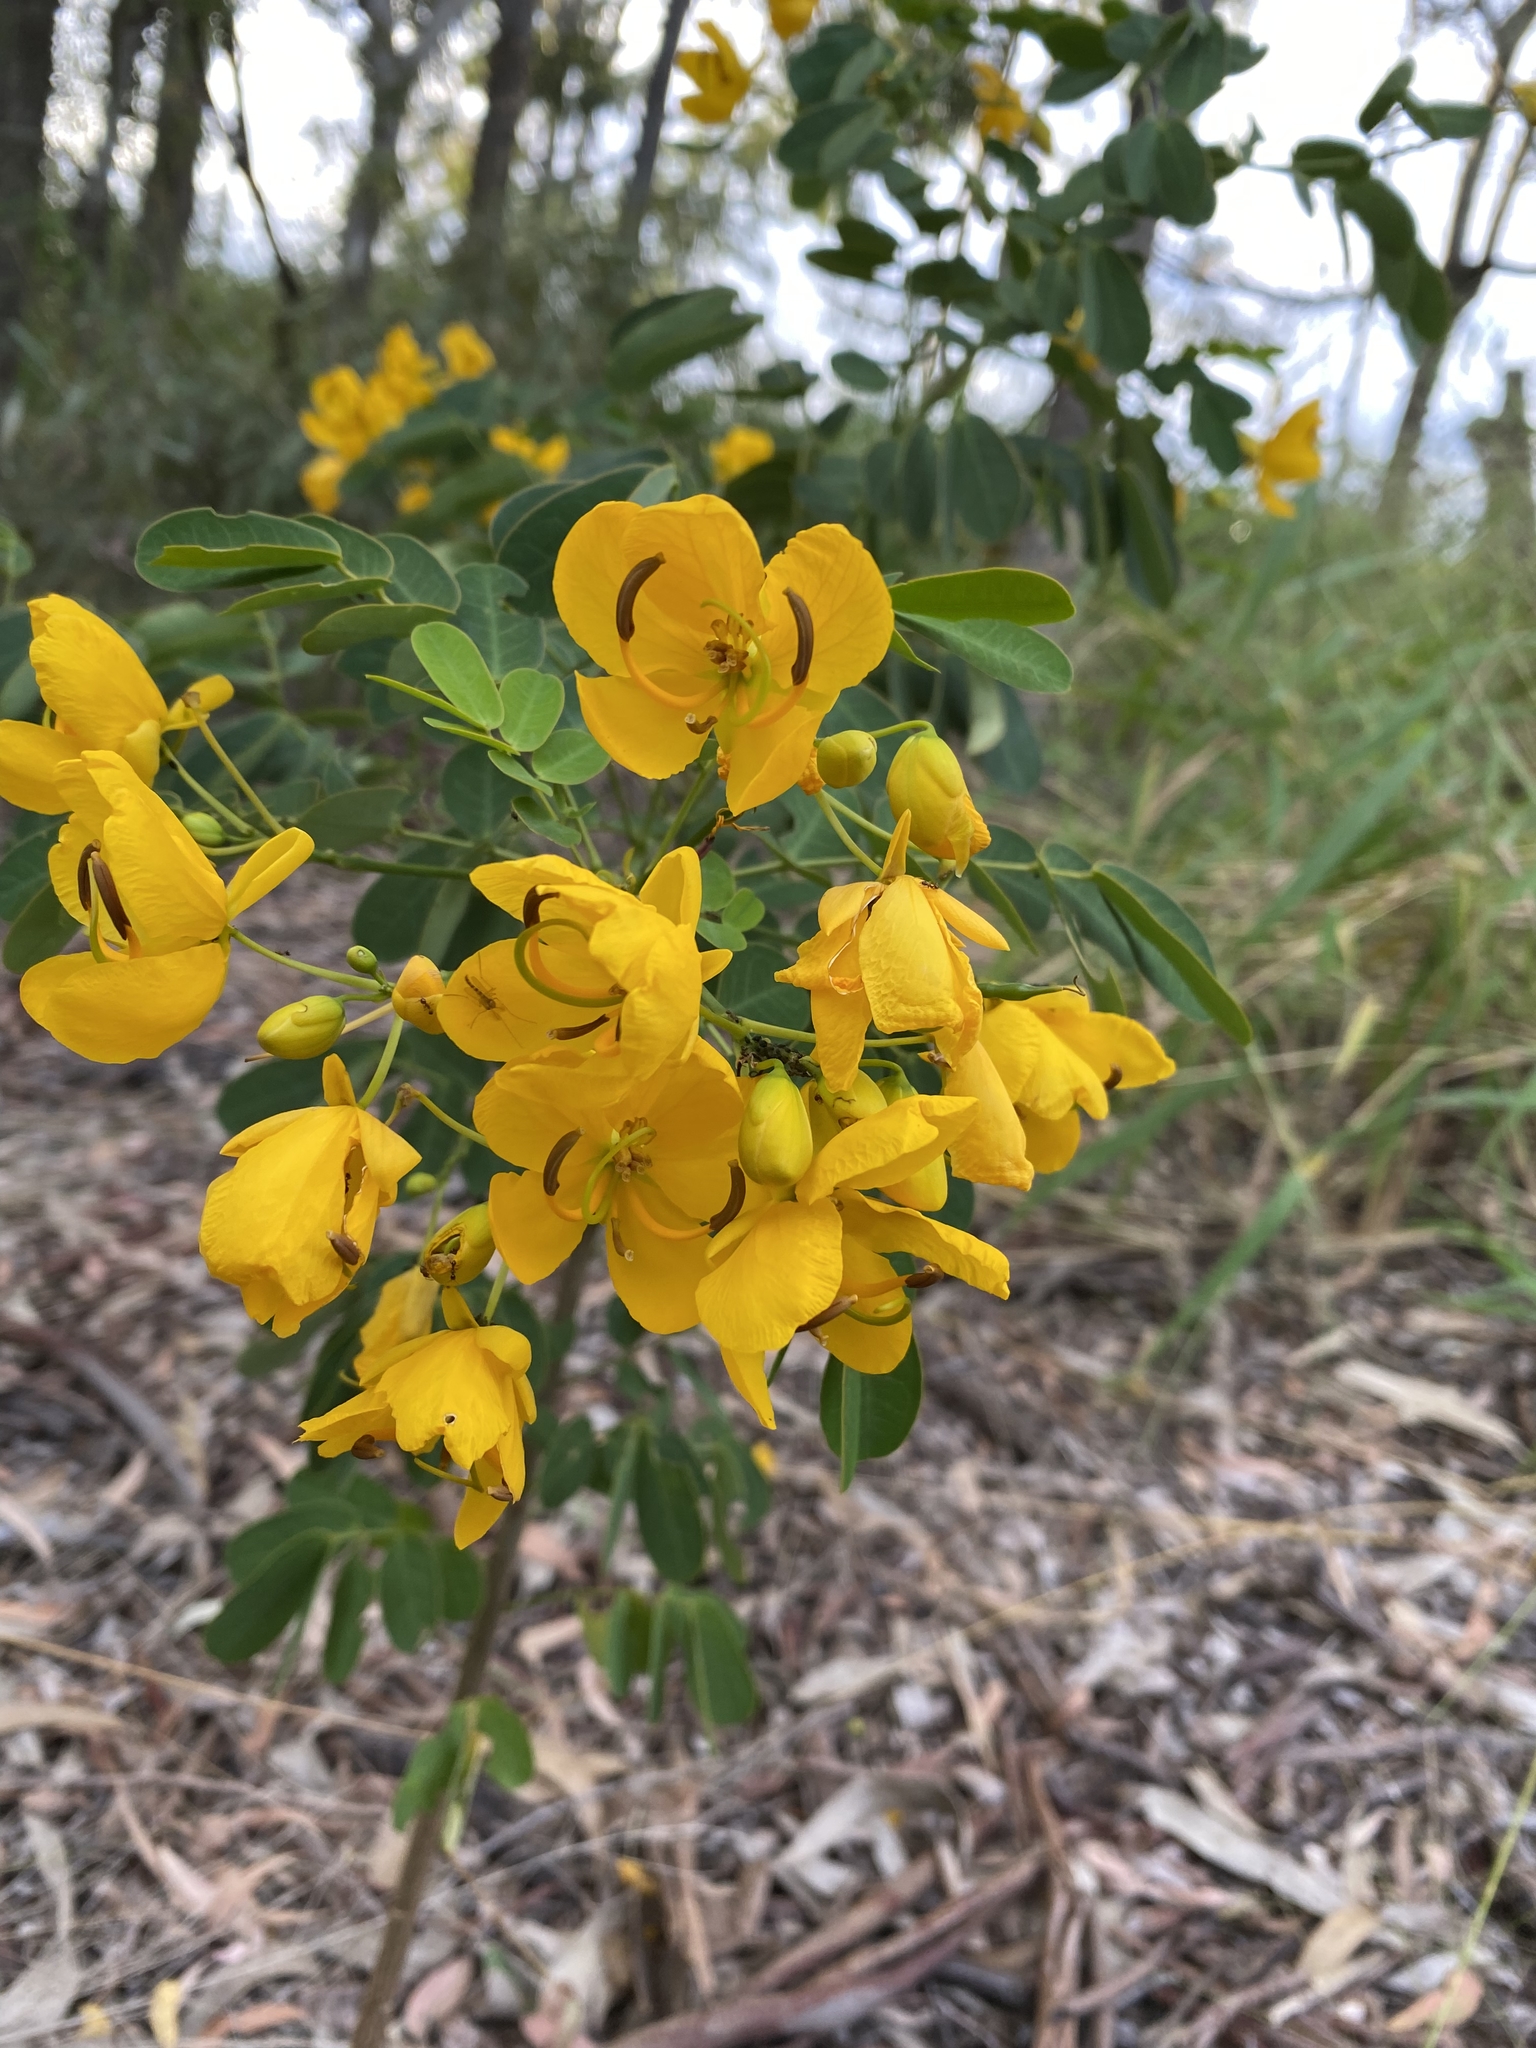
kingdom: Plantae
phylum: Tracheophyta
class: Magnoliopsida
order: Fabales
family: Fabaceae
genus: Senna
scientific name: Senna pendula
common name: Easter cassia
